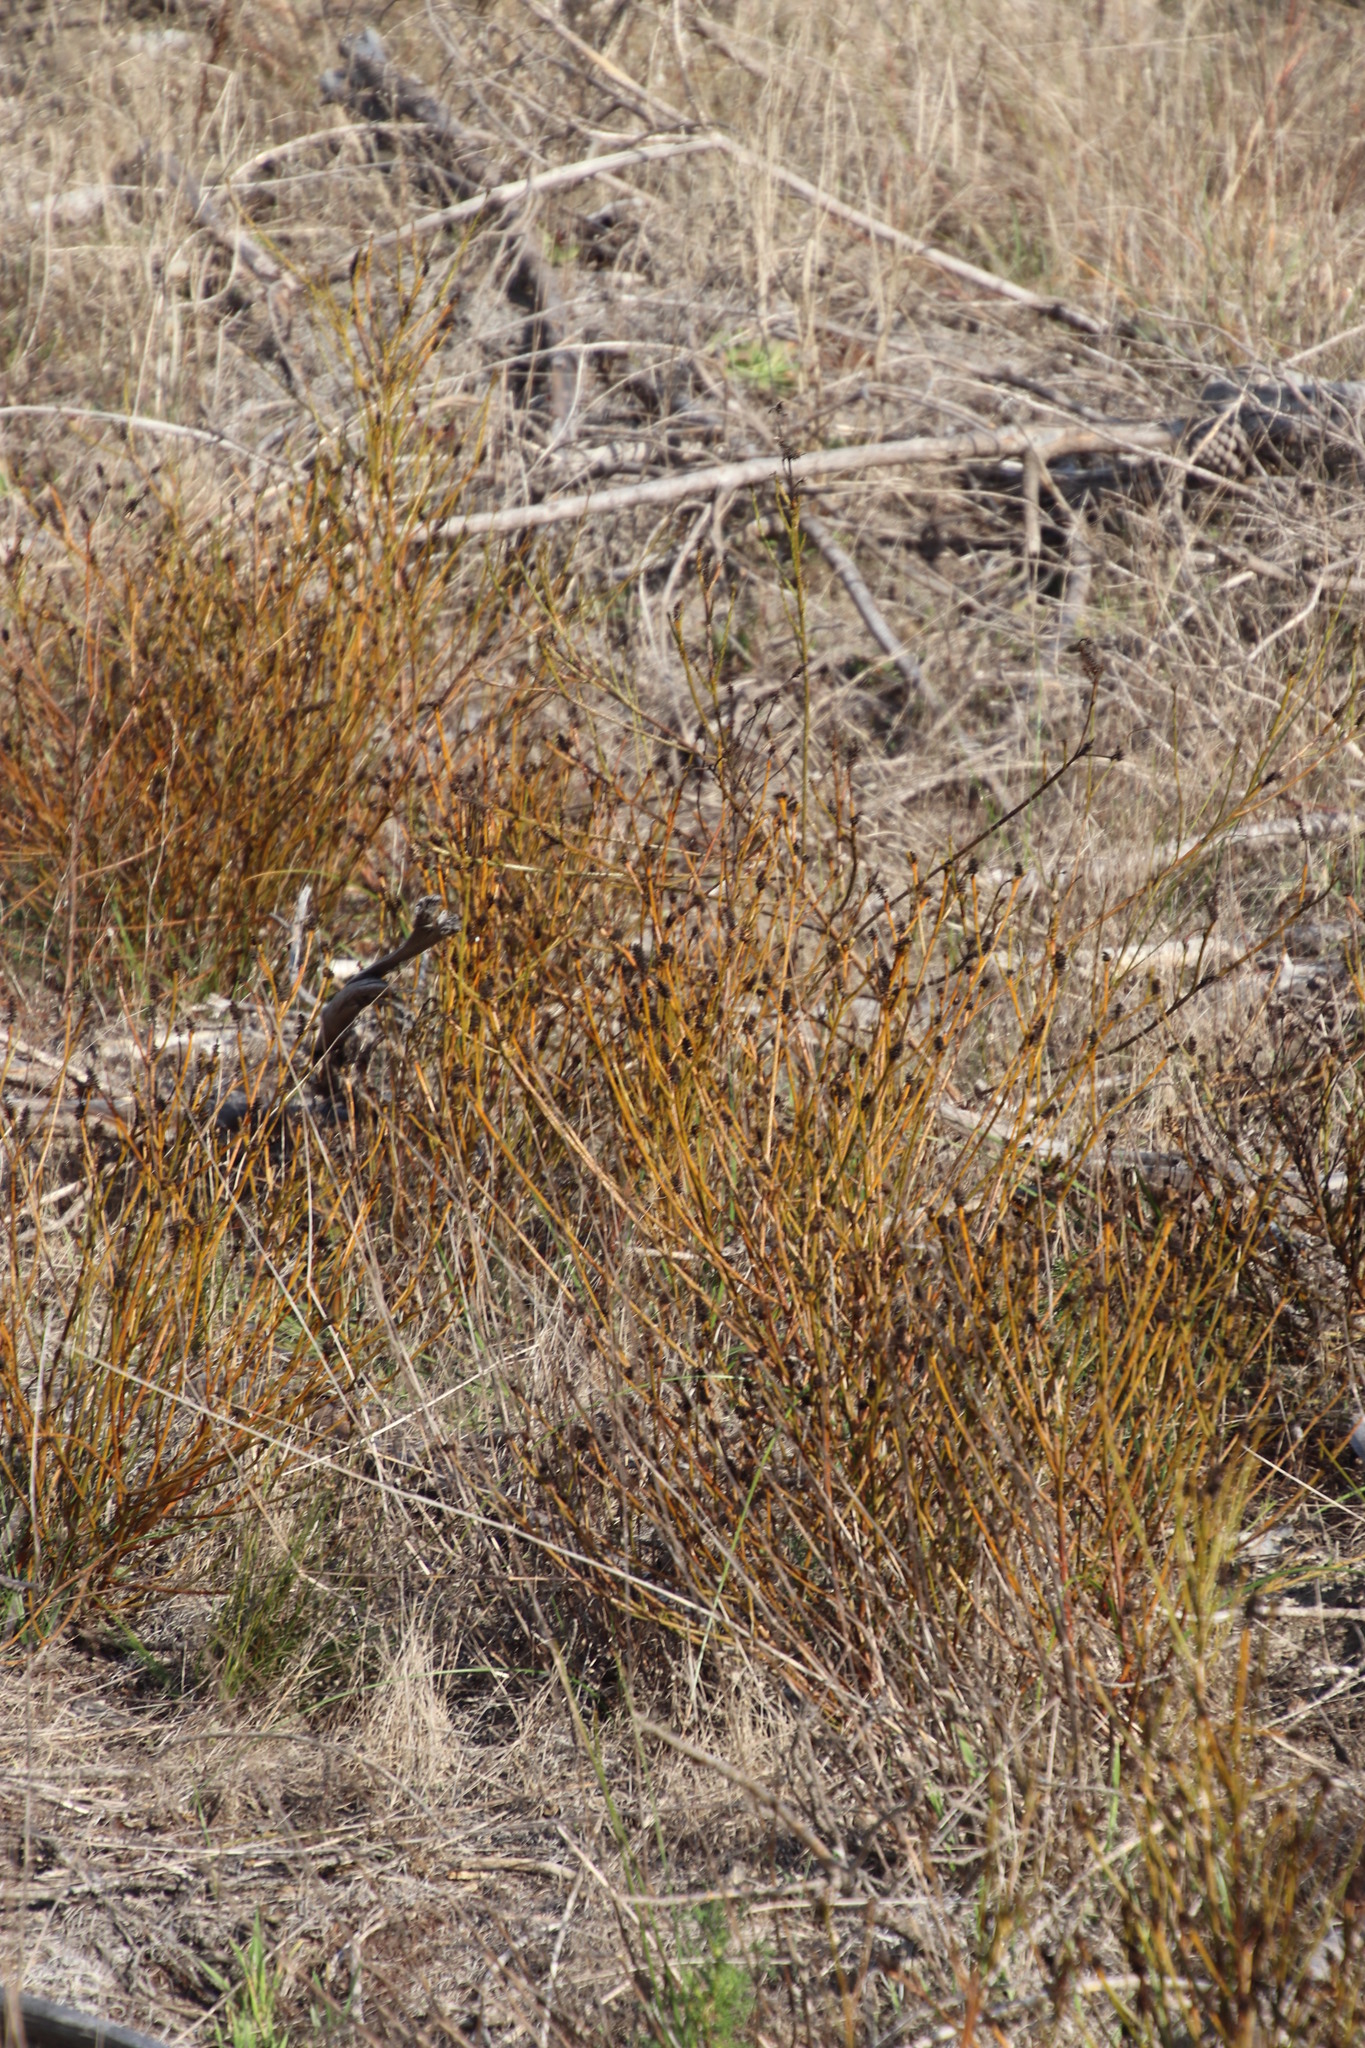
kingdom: Plantae
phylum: Tracheophyta
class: Magnoliopsida
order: Santalales
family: Thesiaceae
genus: Thesium
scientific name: Thesium aggregatum
